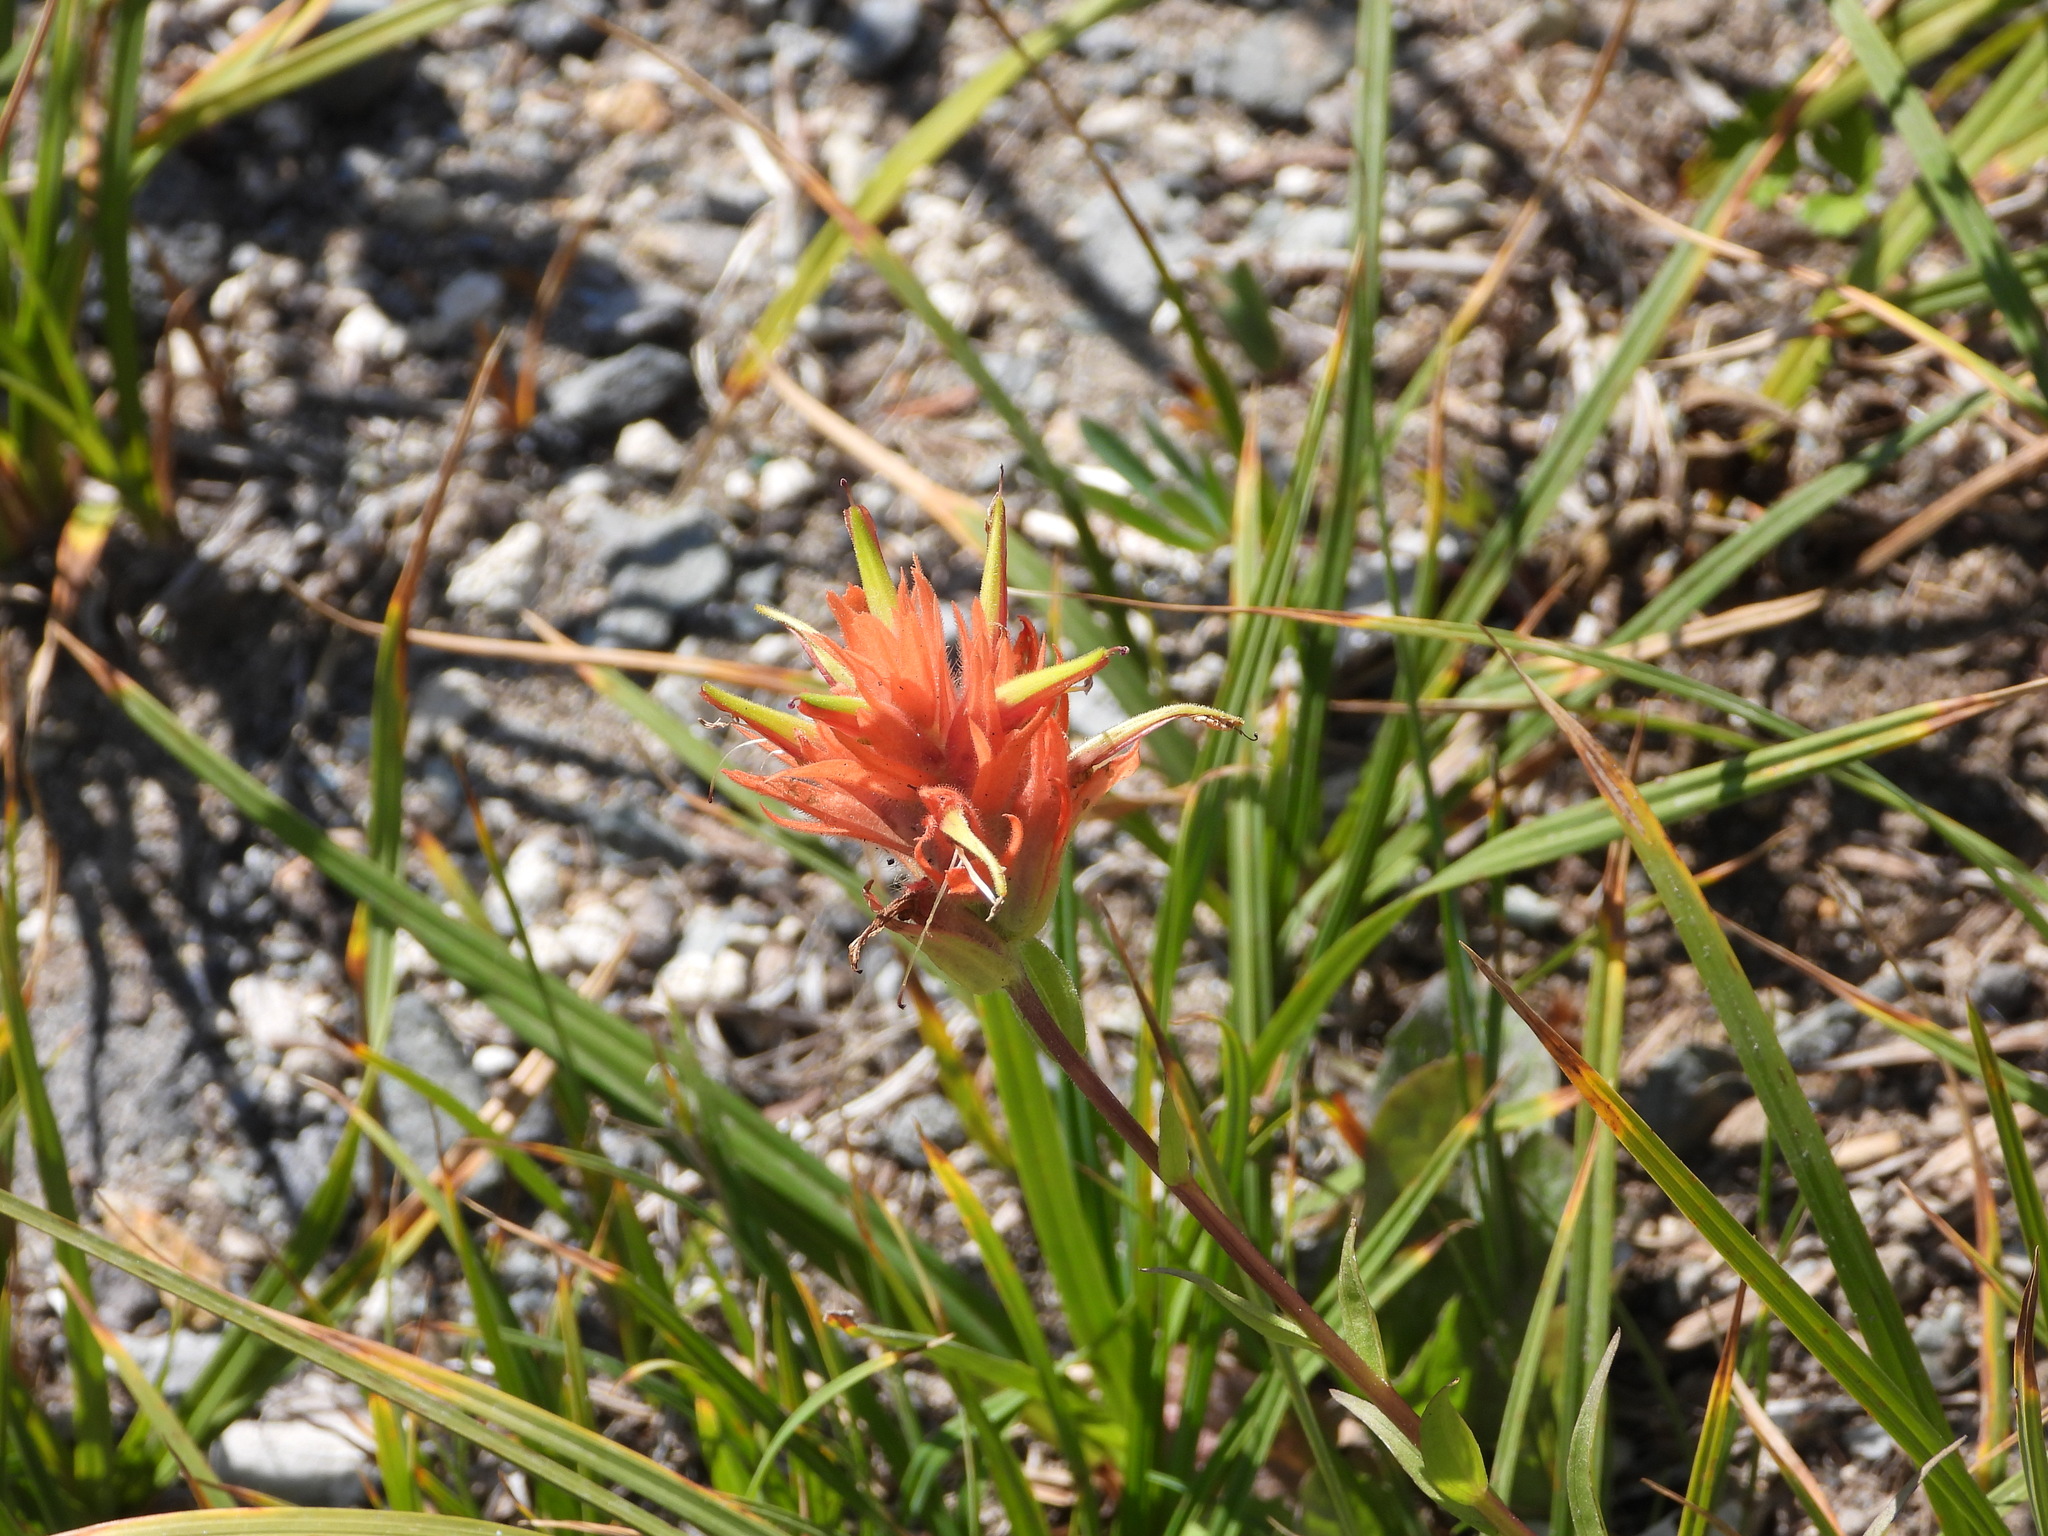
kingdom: Plantae
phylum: Tracheophyta
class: Magnoliopsida
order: Lamiales
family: Orobanchaceae
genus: Castilleja
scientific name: Castilleja miniata
